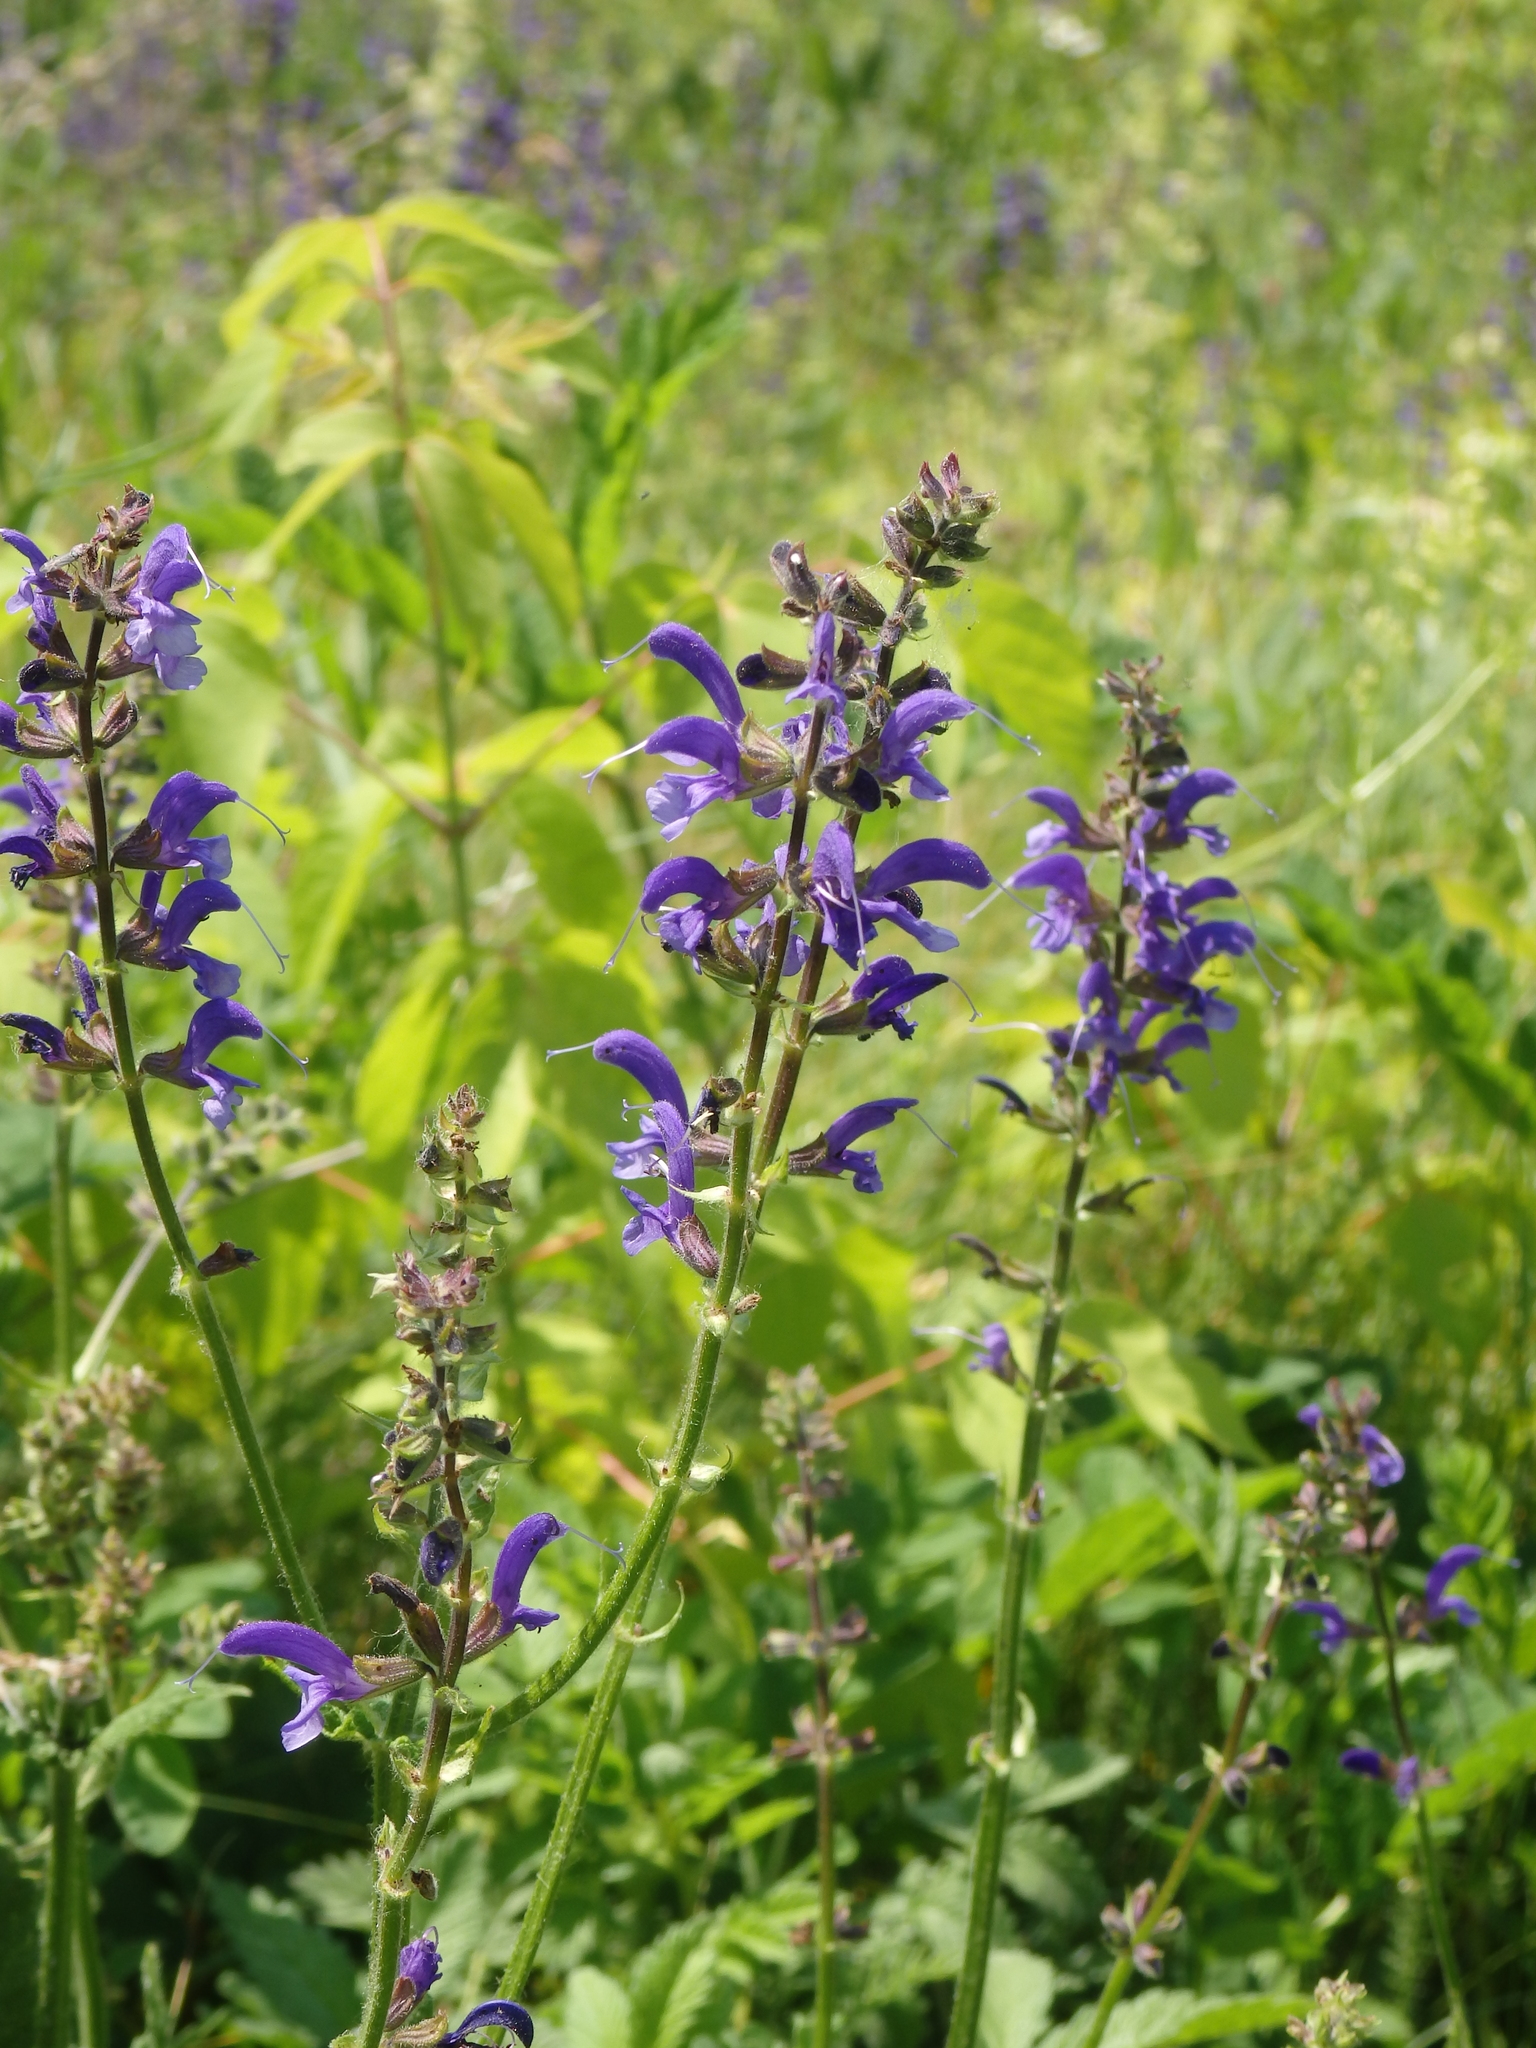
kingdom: Plantae
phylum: Tracheophyta
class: Magnoliopsida
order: Lamiales
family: Lamiaceae
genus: Salvia
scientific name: Salvia pratensis
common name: Meadow sage
